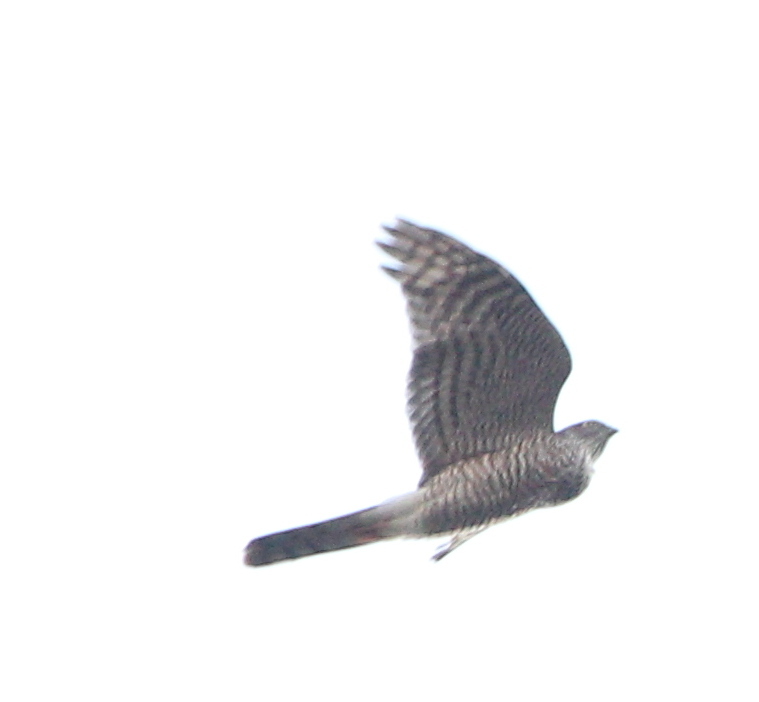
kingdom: Animalia
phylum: Chordata
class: Aves
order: Accipitriformes
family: Accipitridae
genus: Accipiter
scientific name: Accipiter nisus
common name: Eurasian sparrowhawk
